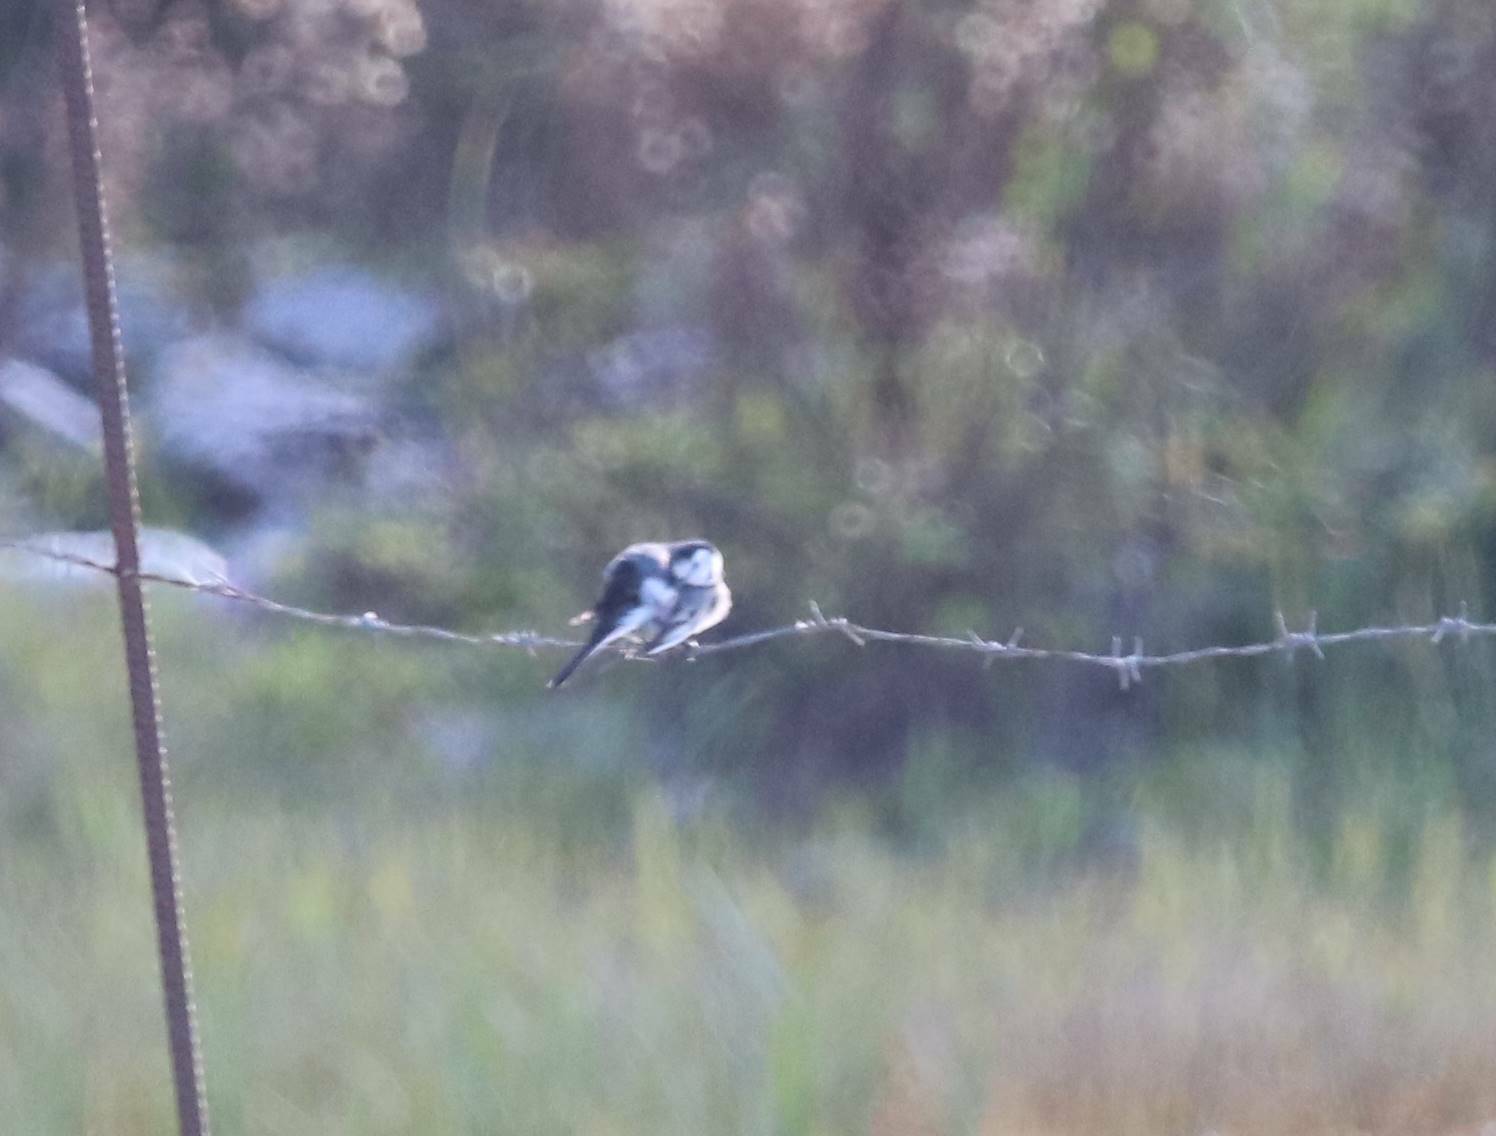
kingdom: Animalia
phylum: Chordata
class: Aves
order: Passeriformes
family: Motacillidae
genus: Motacilla
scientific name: Motacilla alba
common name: White wagtail
